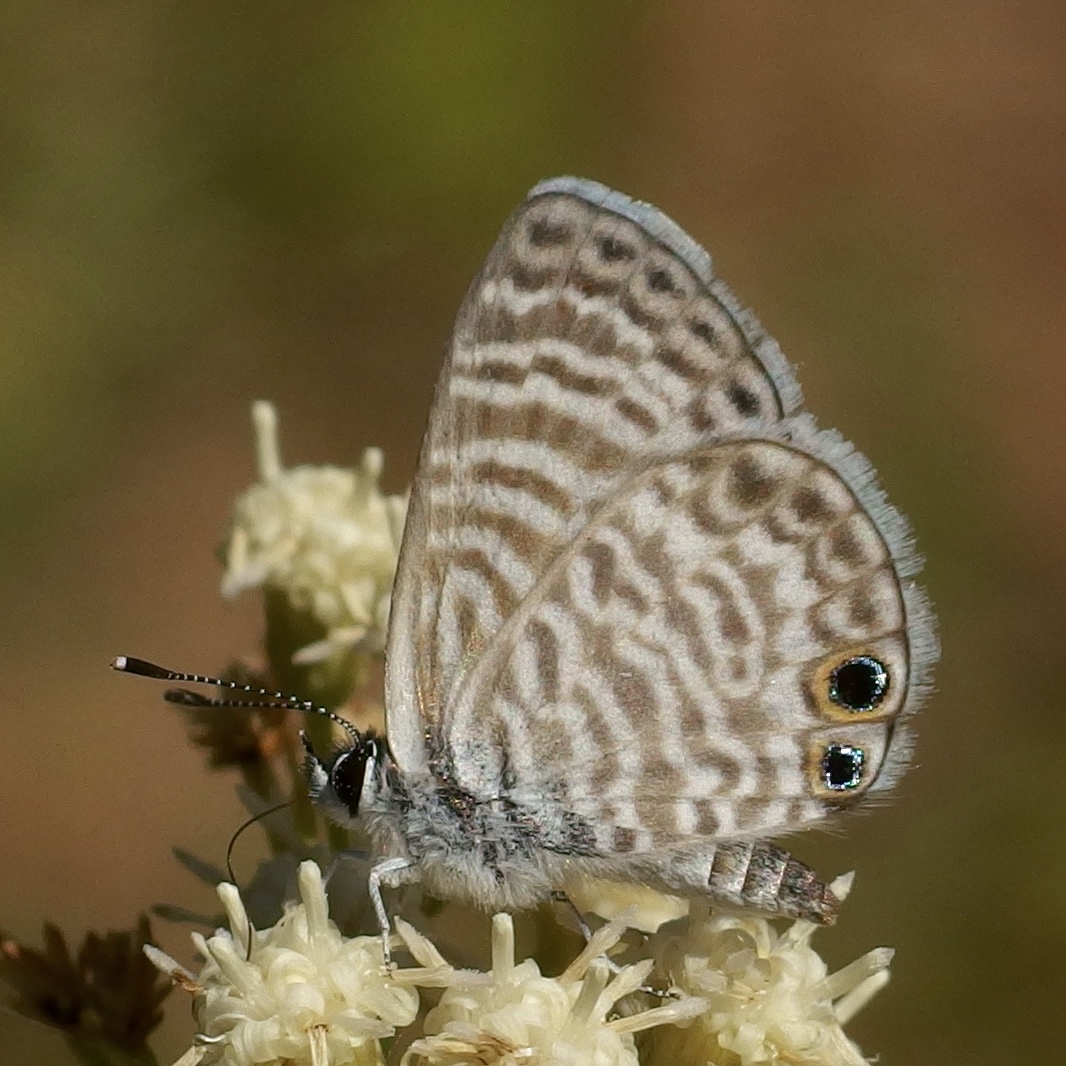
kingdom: Animalia
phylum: Arthropoda
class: Insecta
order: Lepidoptera
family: Lycaenidae
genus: Leptotes
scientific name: Leptotes marina
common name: Marine blue
